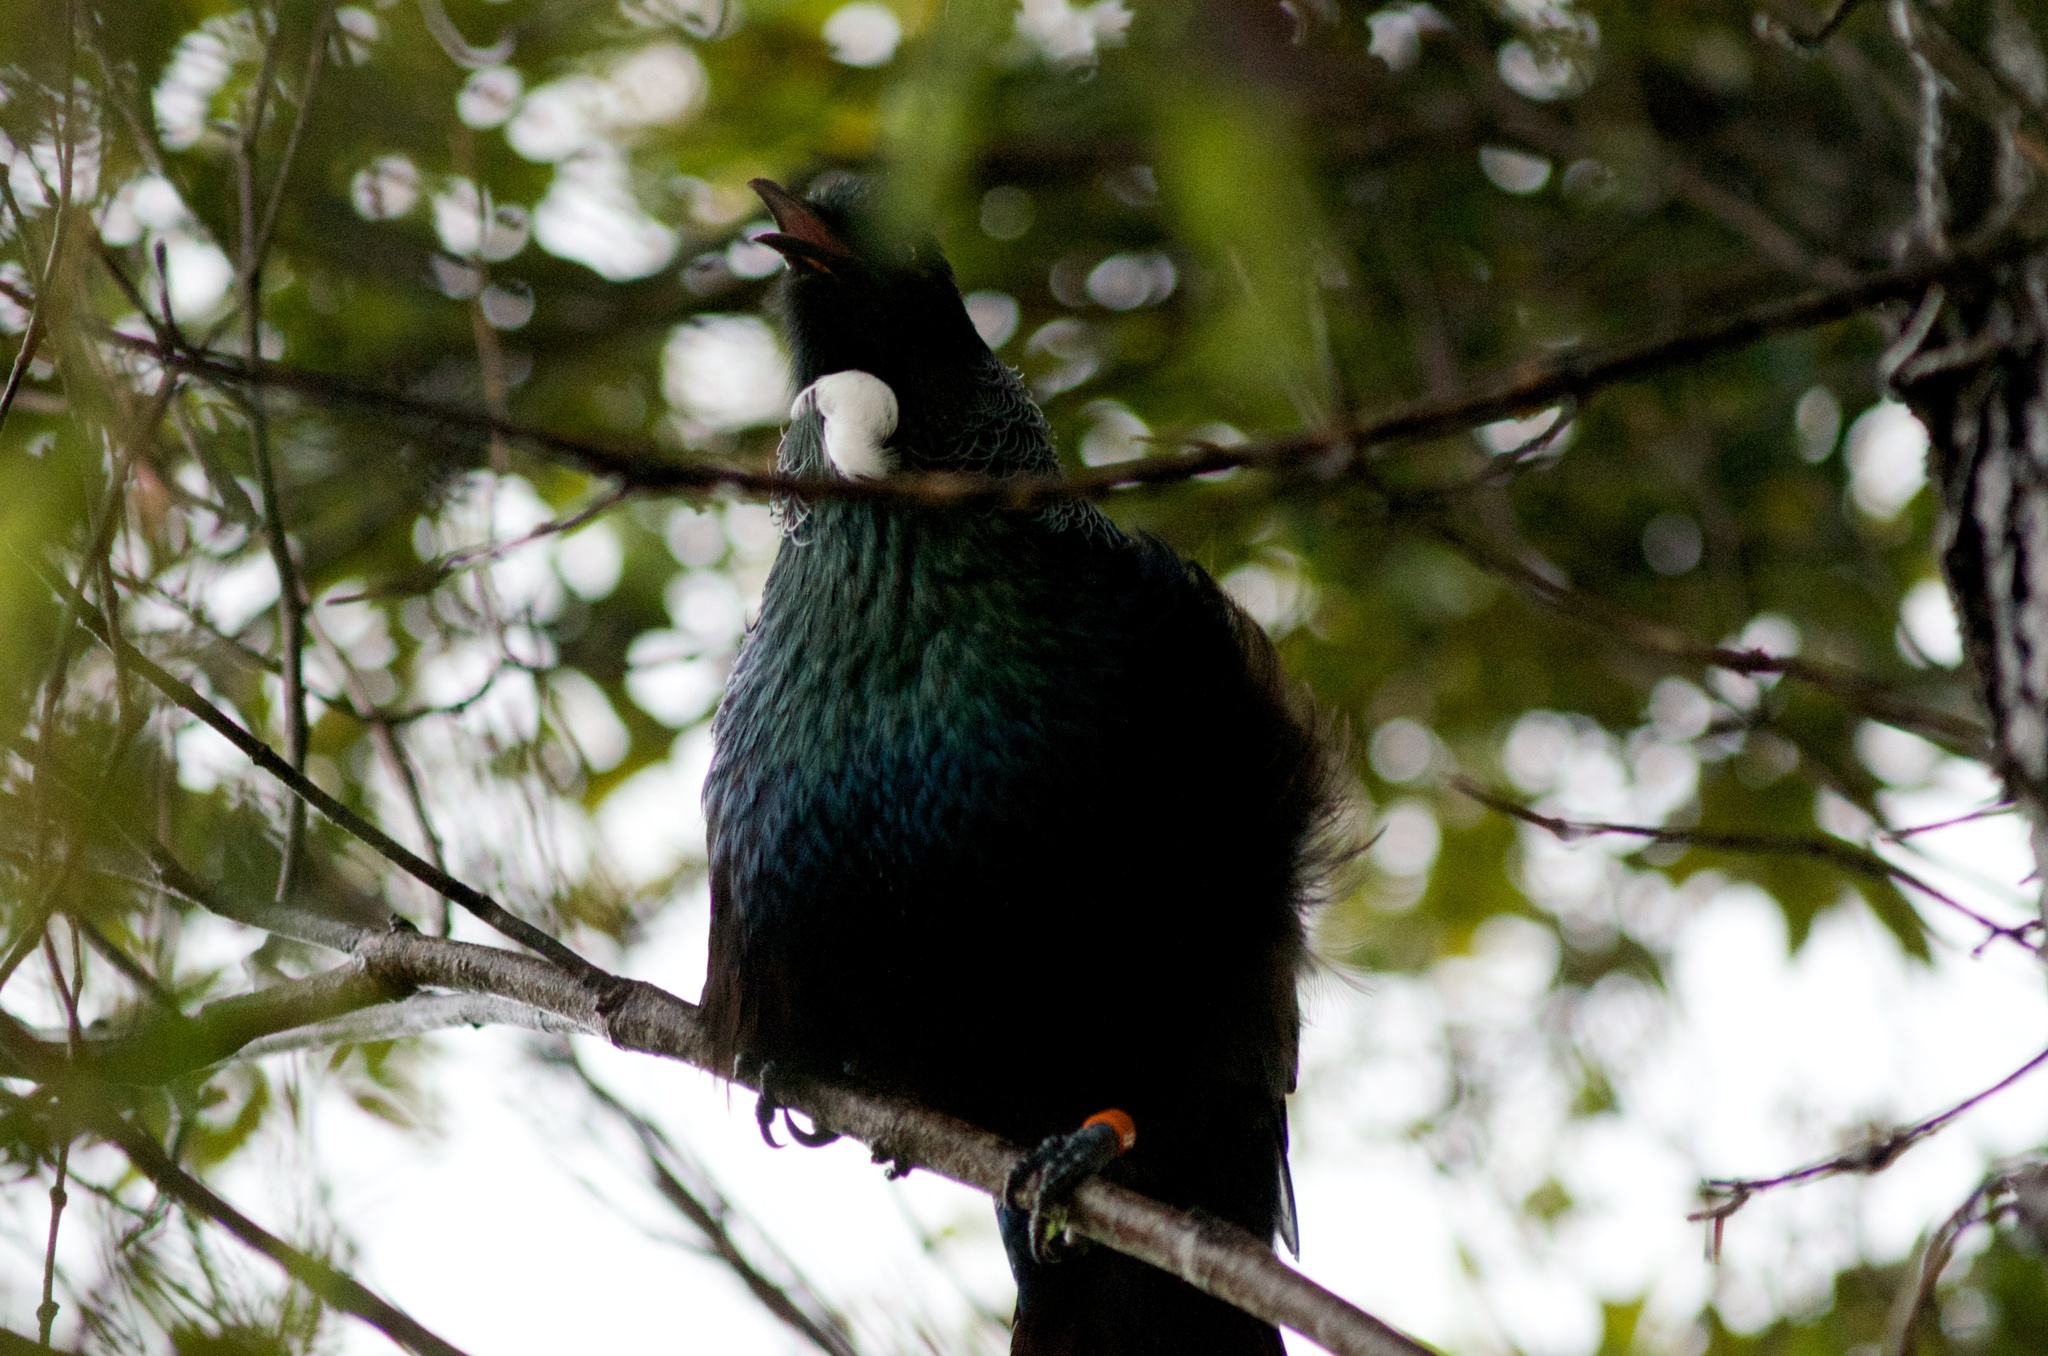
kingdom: Animalia
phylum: Chordata
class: Aves
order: Passeriformes
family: Meliphagidae
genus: Prosthemadera
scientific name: Prosthemadera novaeseelandiae
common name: Tui
